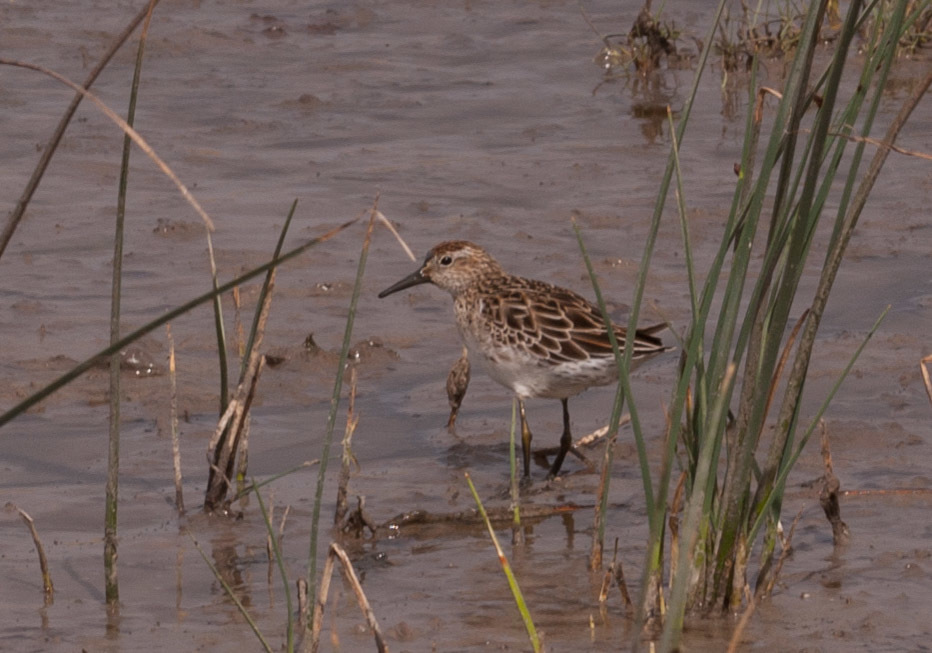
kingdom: Animalia
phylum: Chordata
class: Aves
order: Charadriiformes
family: Scolopacidae
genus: Calidris
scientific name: Calidris acuminata
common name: Sharp-tailed sandpiper
